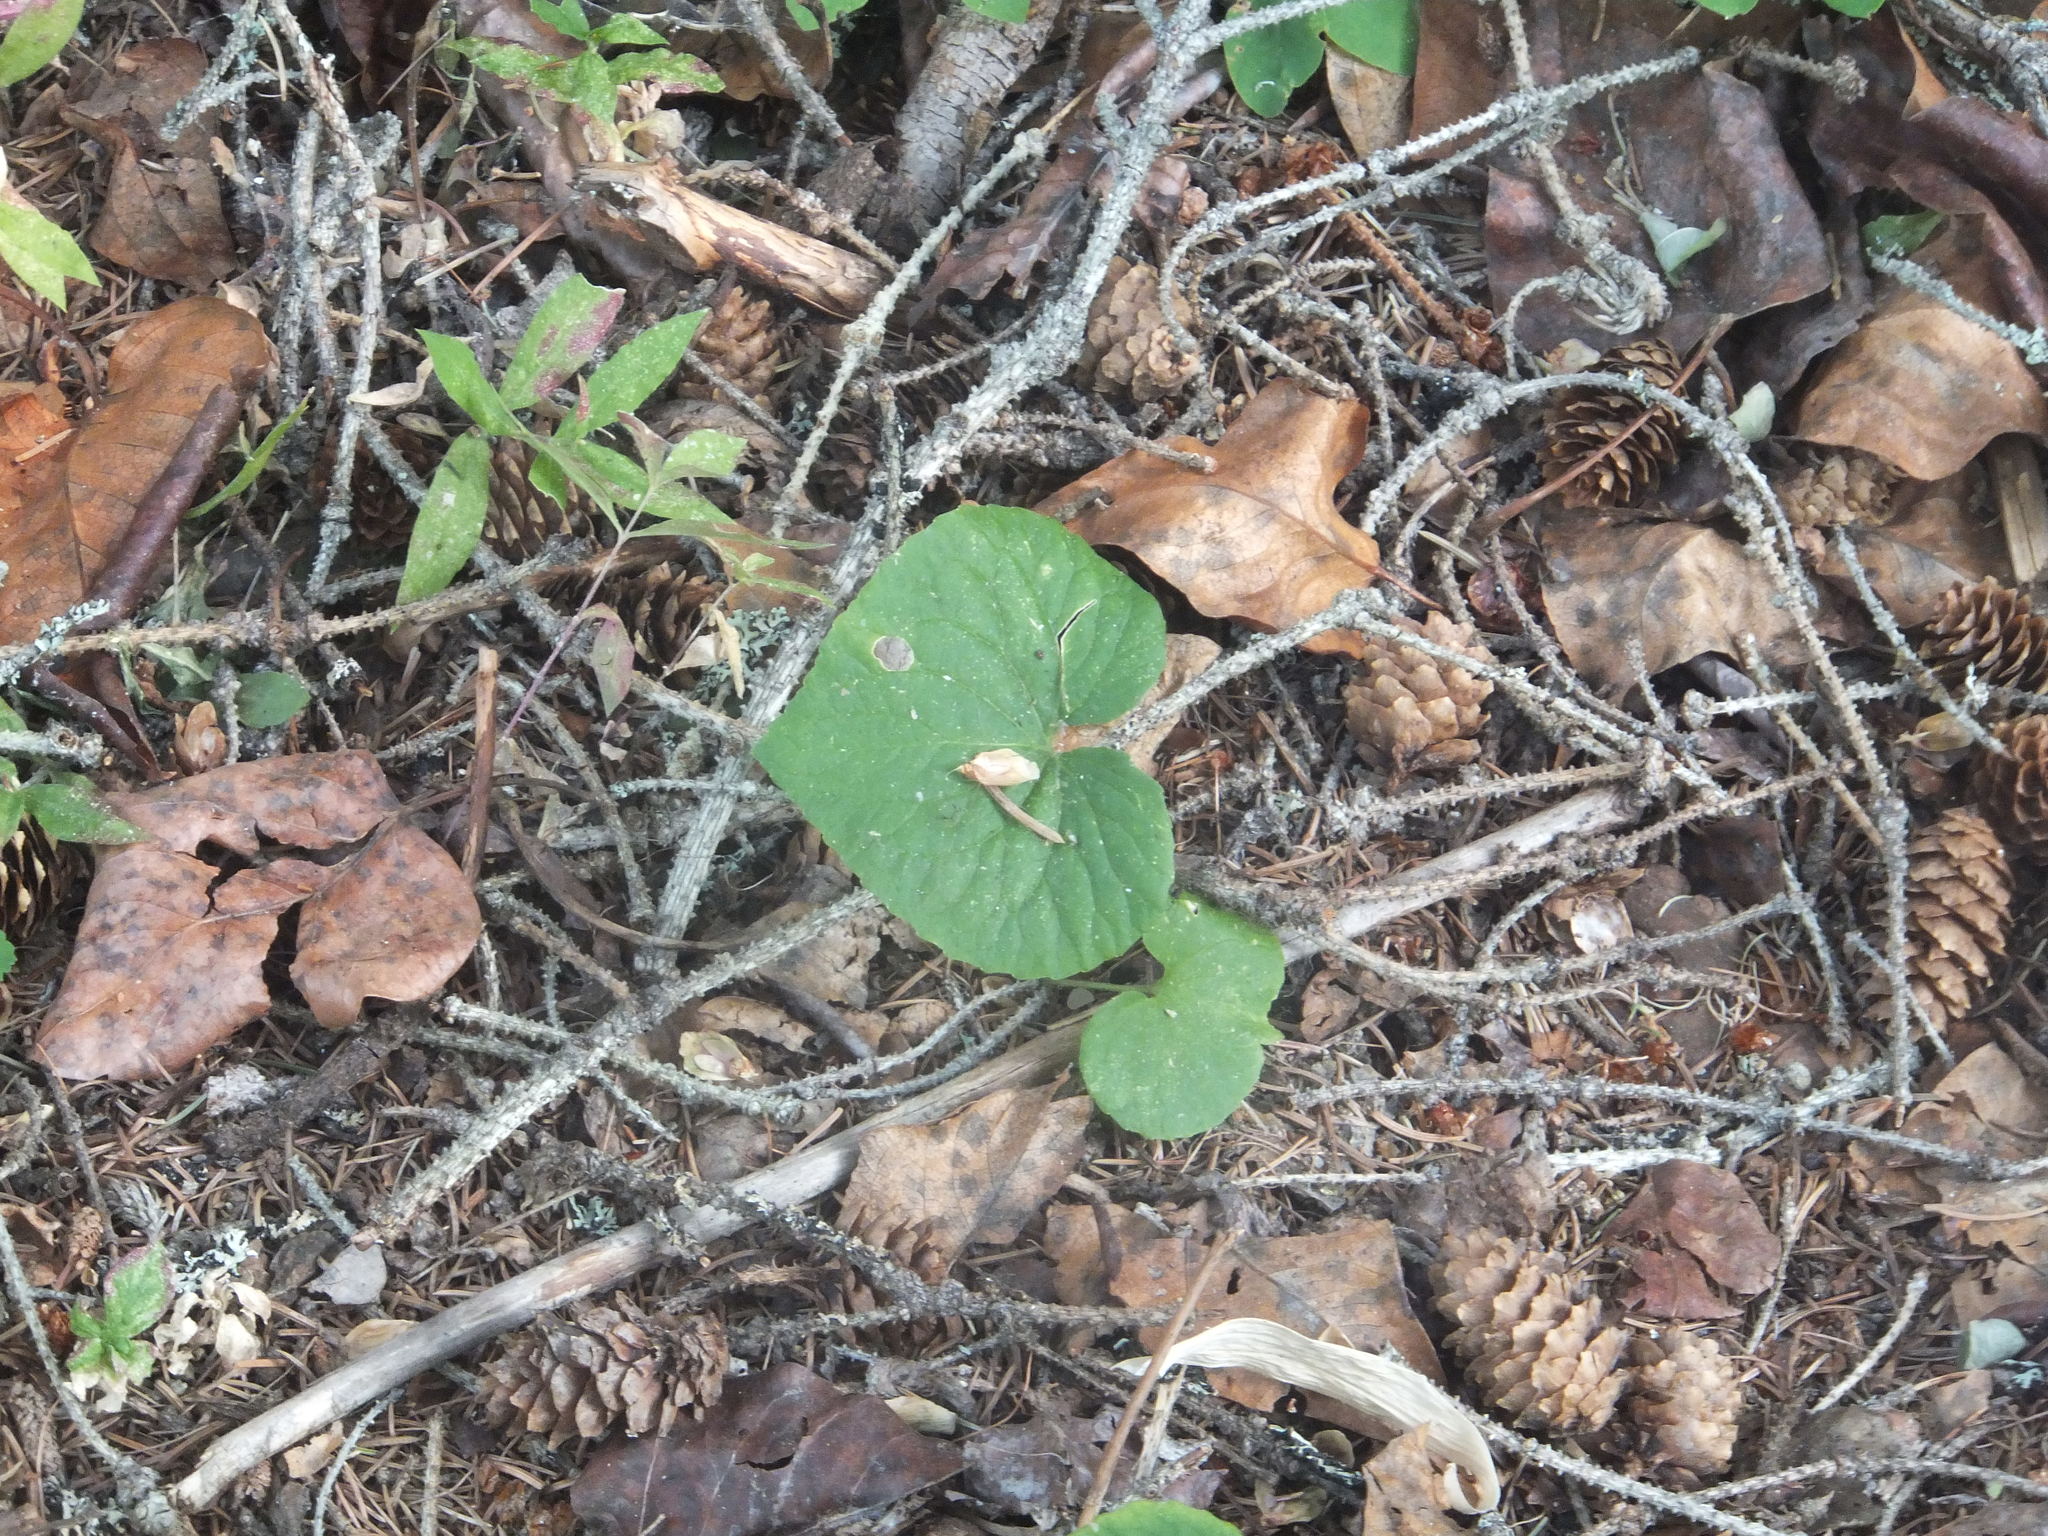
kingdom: Plantae
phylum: Tracheophyta
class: Magnoliopsida
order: Malpighiales
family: Violaceae
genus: Viola
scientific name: Viola canadensis
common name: Canada violet
